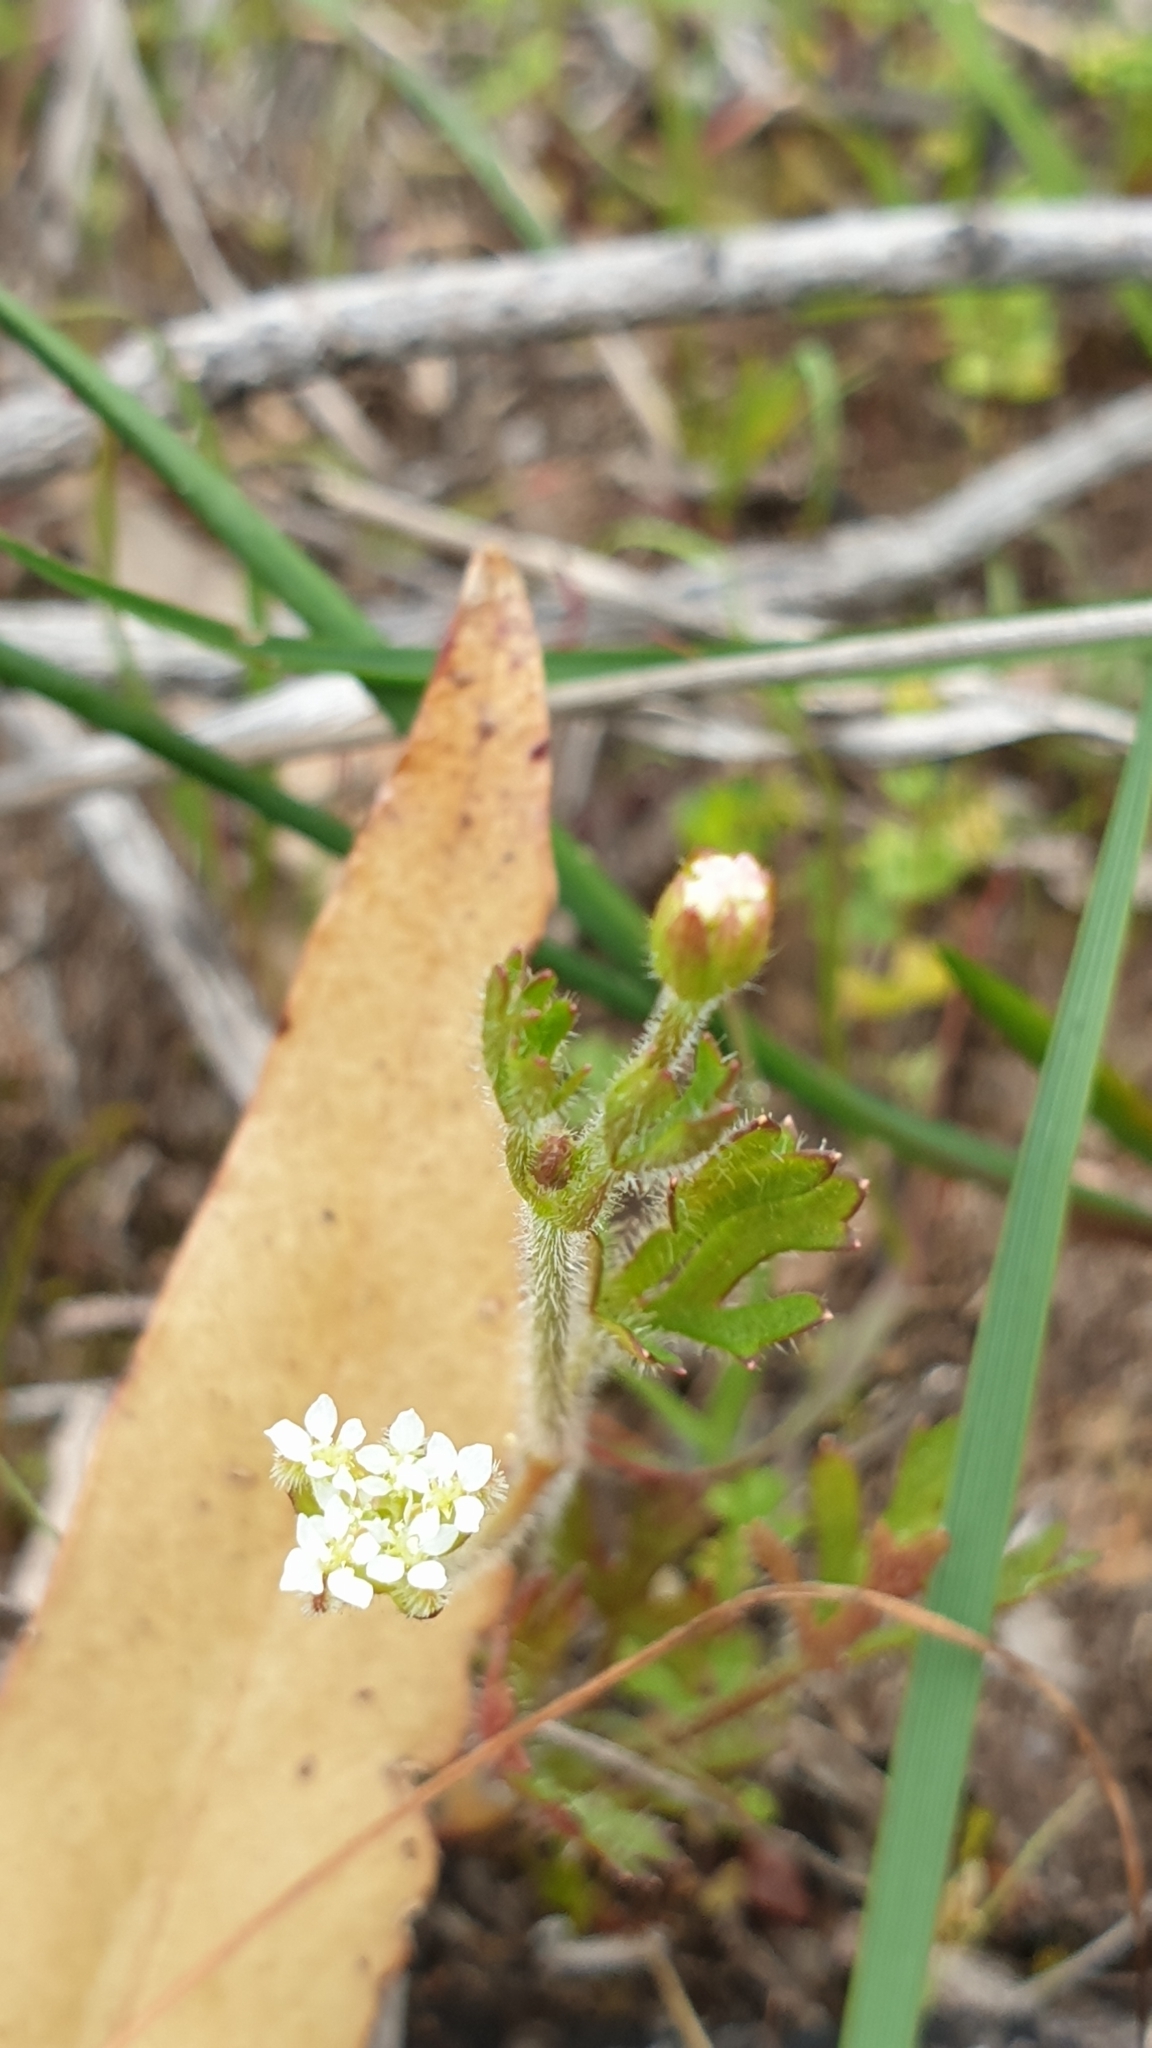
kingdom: Plantae
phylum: Tracheophyta
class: Magnoliopsida
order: Apiales
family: Araliaceae
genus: Trachymene
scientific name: Trachymene pilosa
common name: Dwarf trachymene
